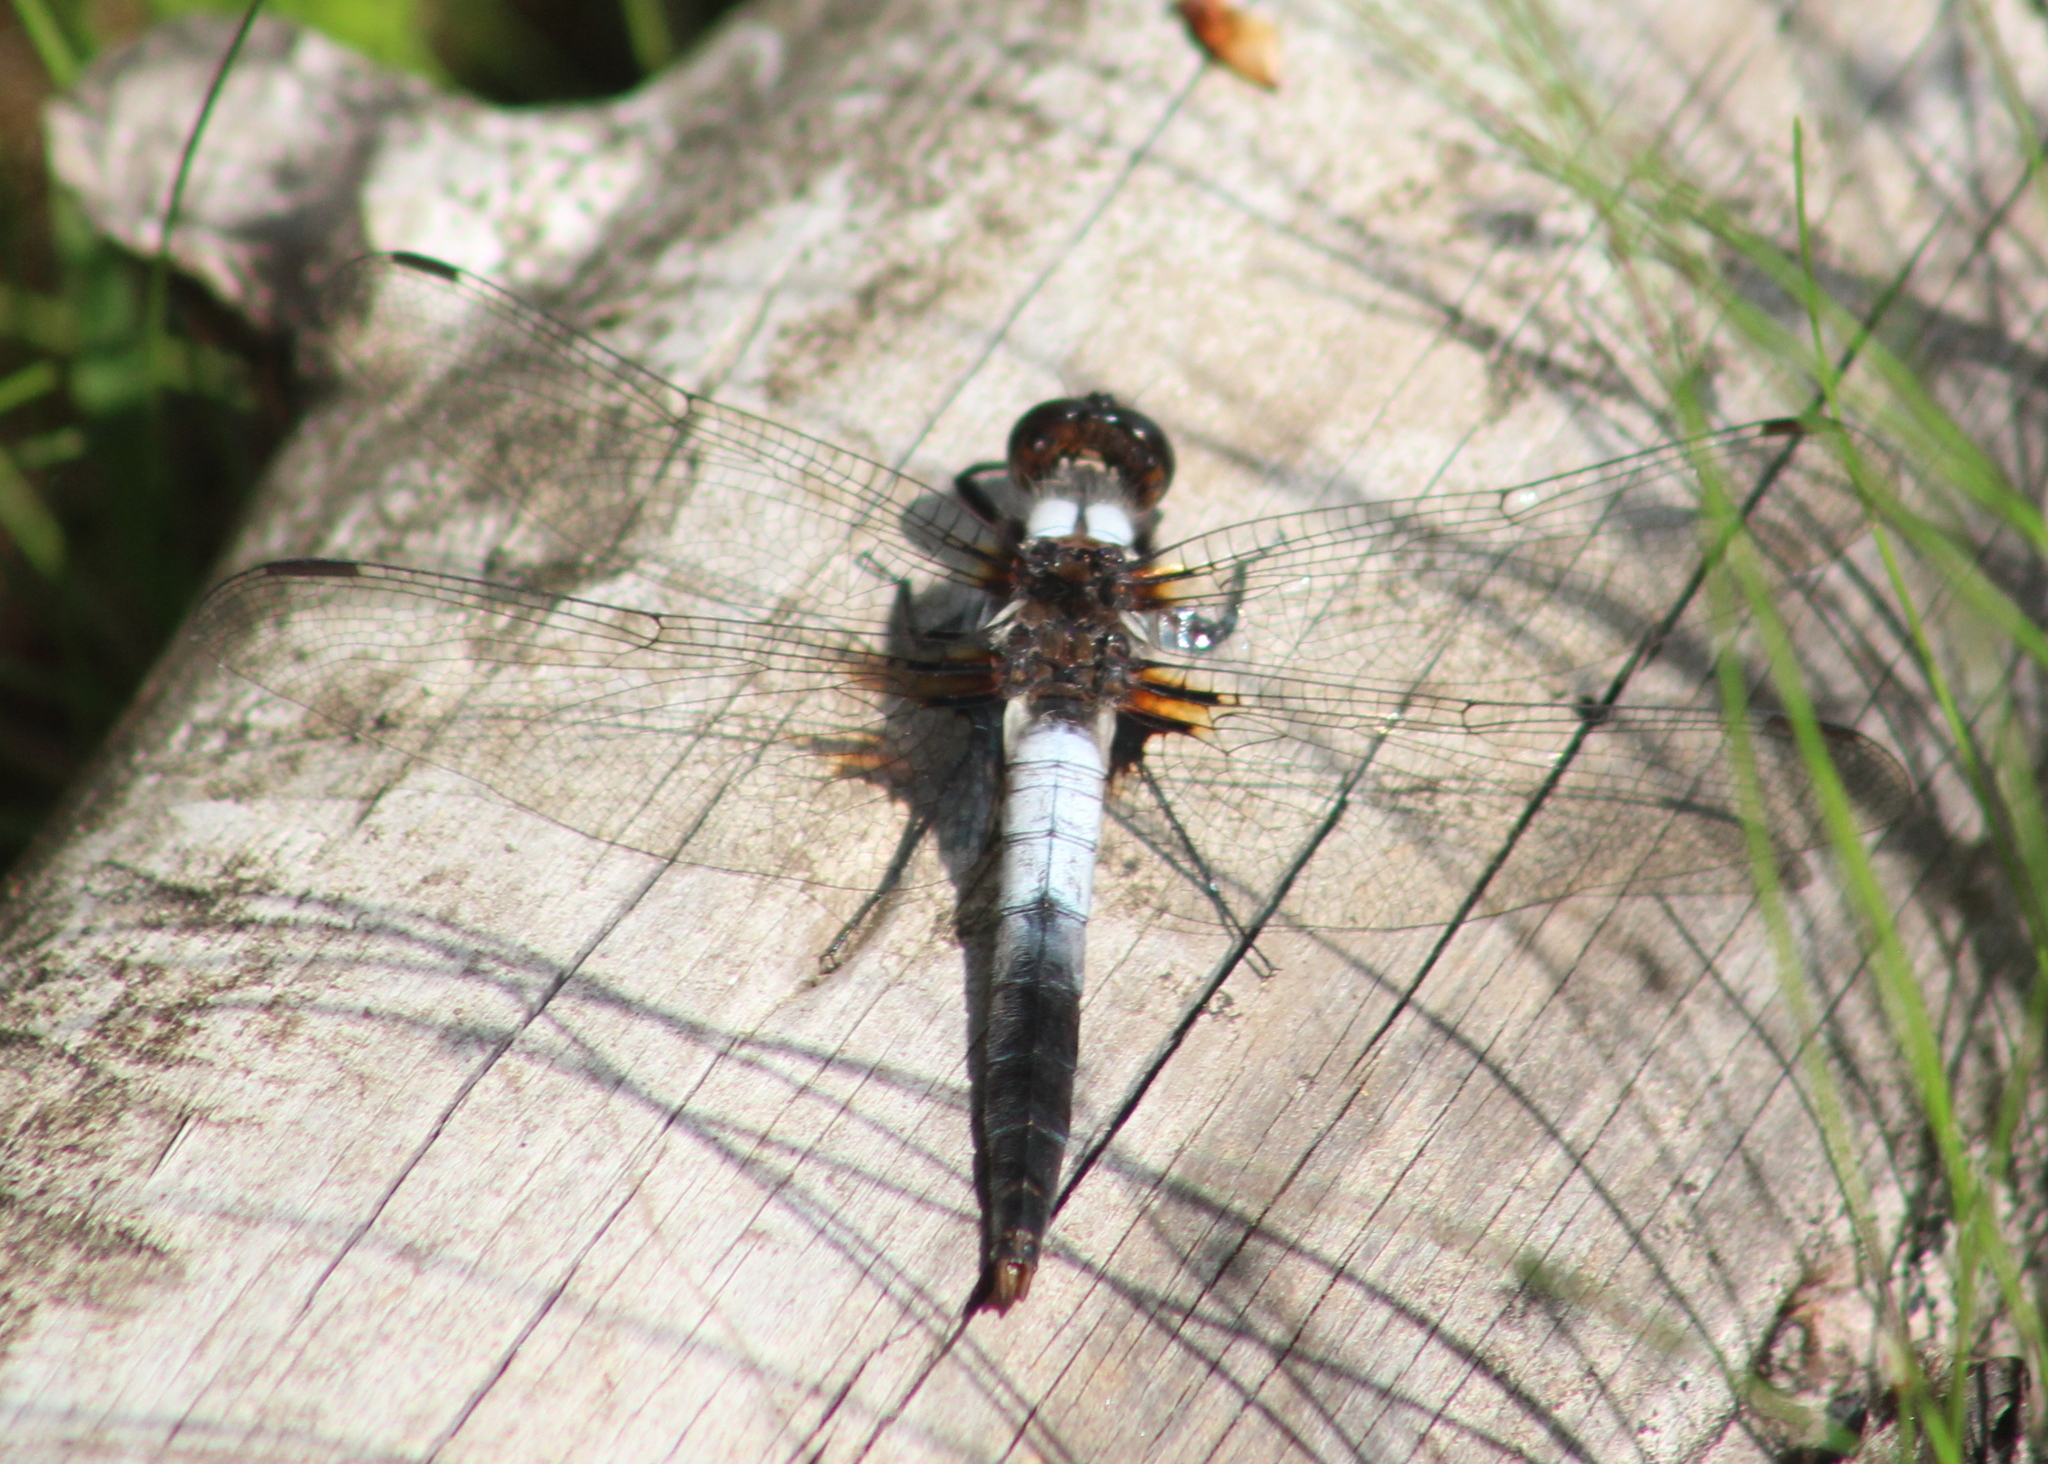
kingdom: Animalia
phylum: Arthropoda
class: Insecta
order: Odonata
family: Libellulidae
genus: Ladona
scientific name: Ladona julia
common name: Chalk-fronted corporal
